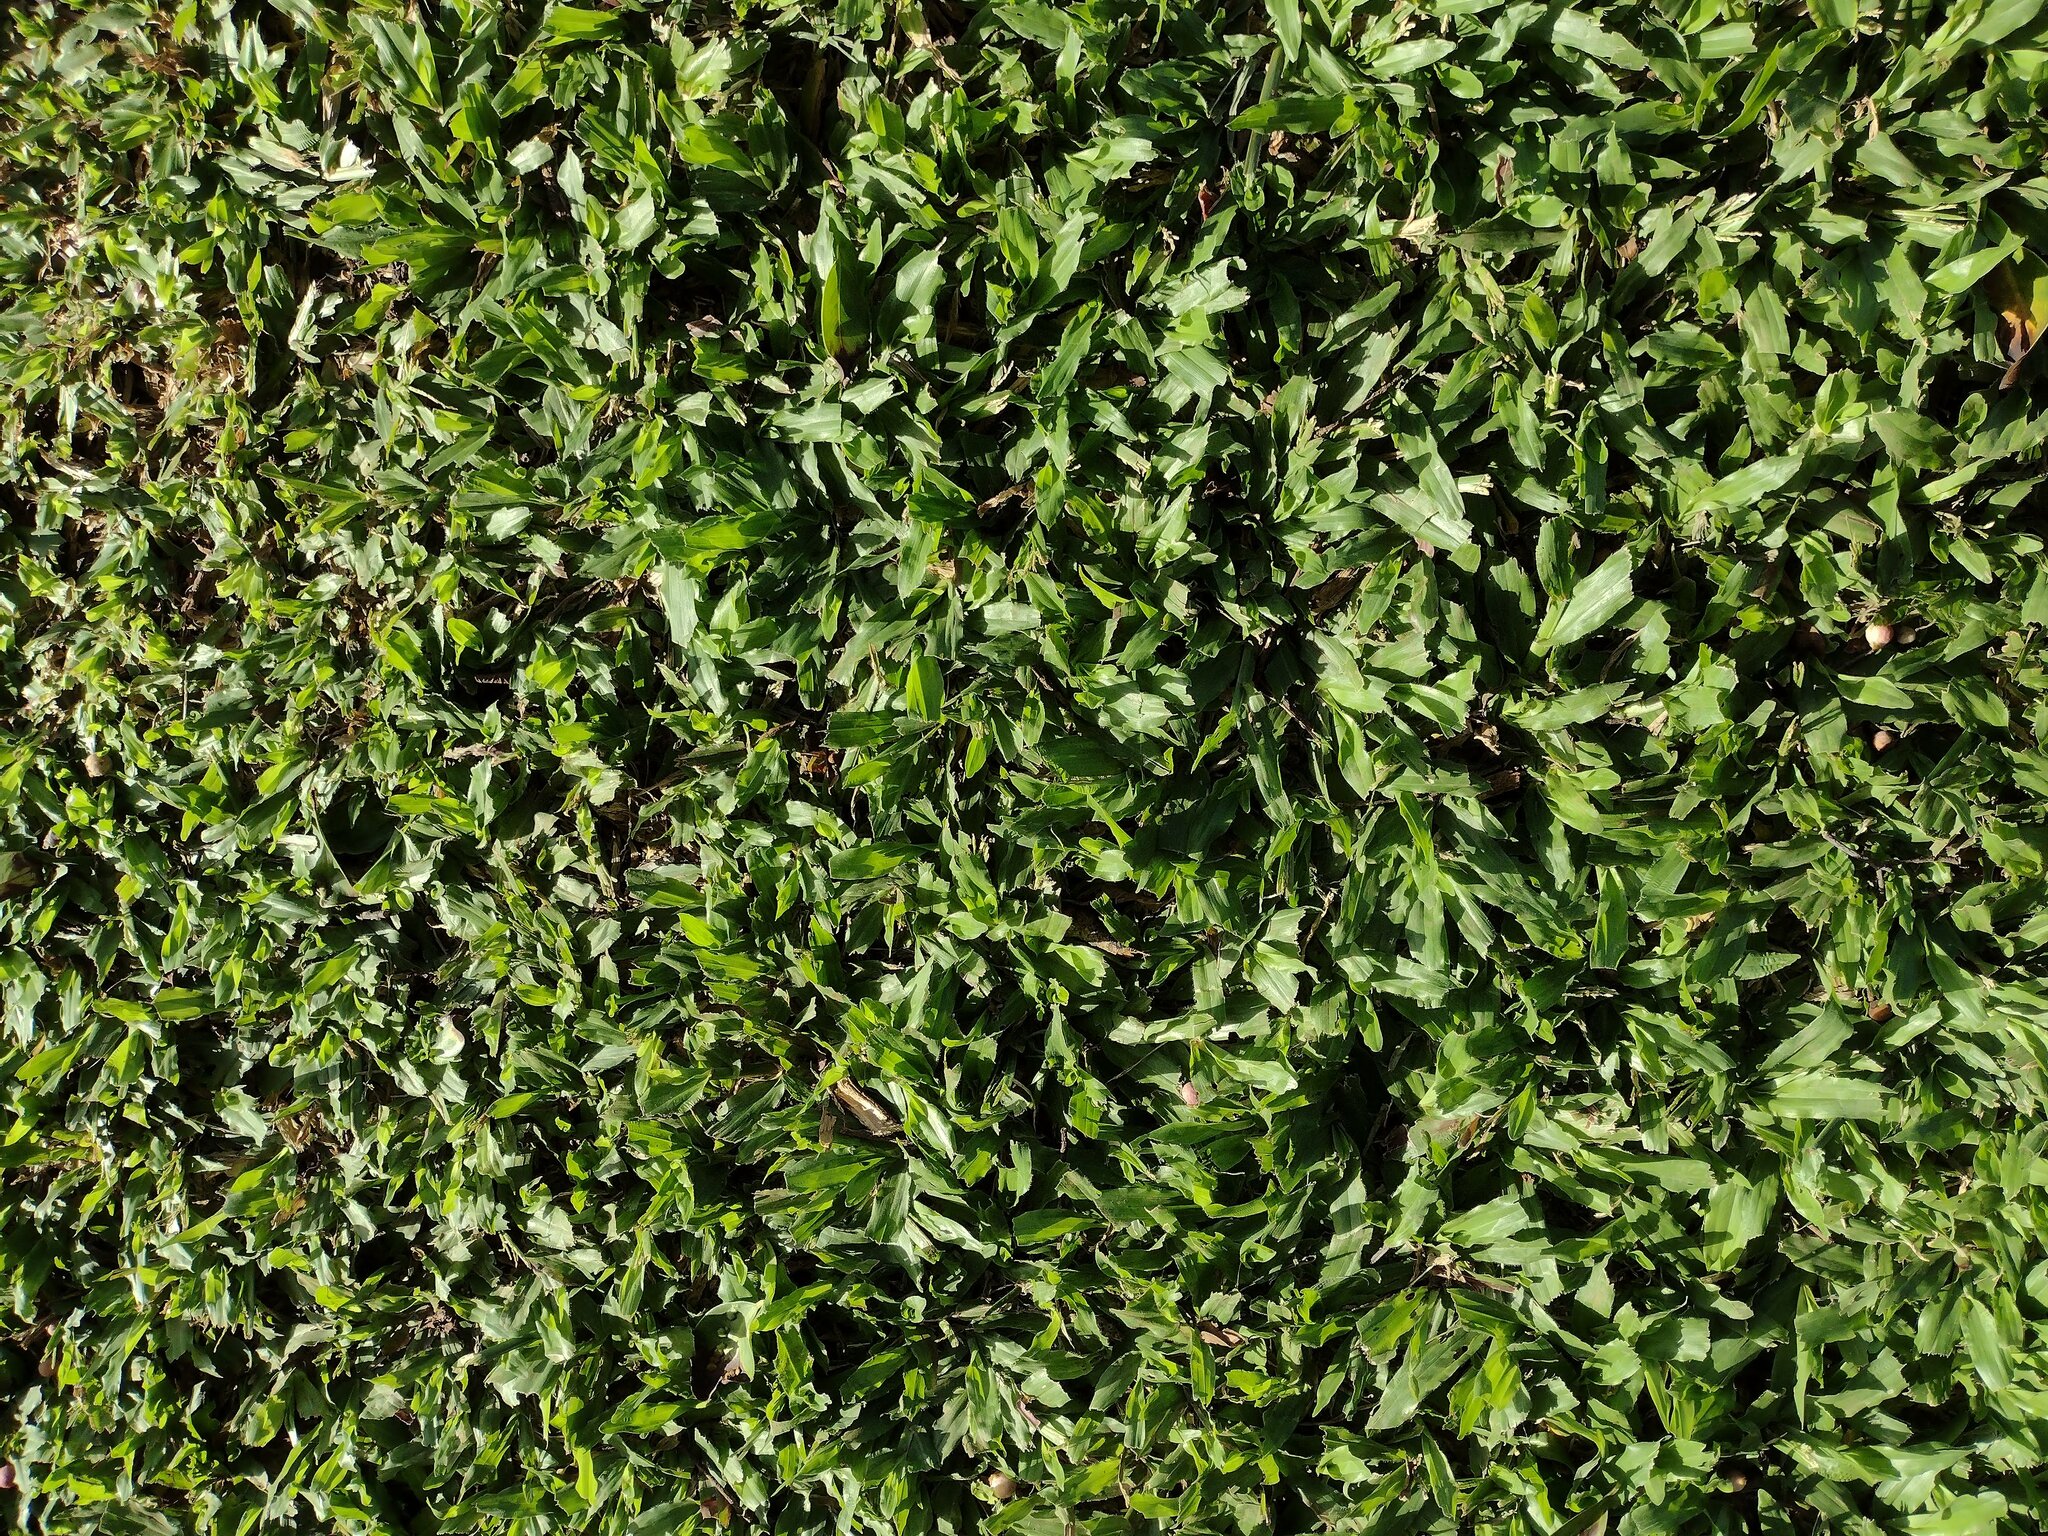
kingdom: Plantae
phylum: Tracheophyta
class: Liliopsida
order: Poales
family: Poaceae
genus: Axonopus
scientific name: Axonopus compressus
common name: American carpet grass
